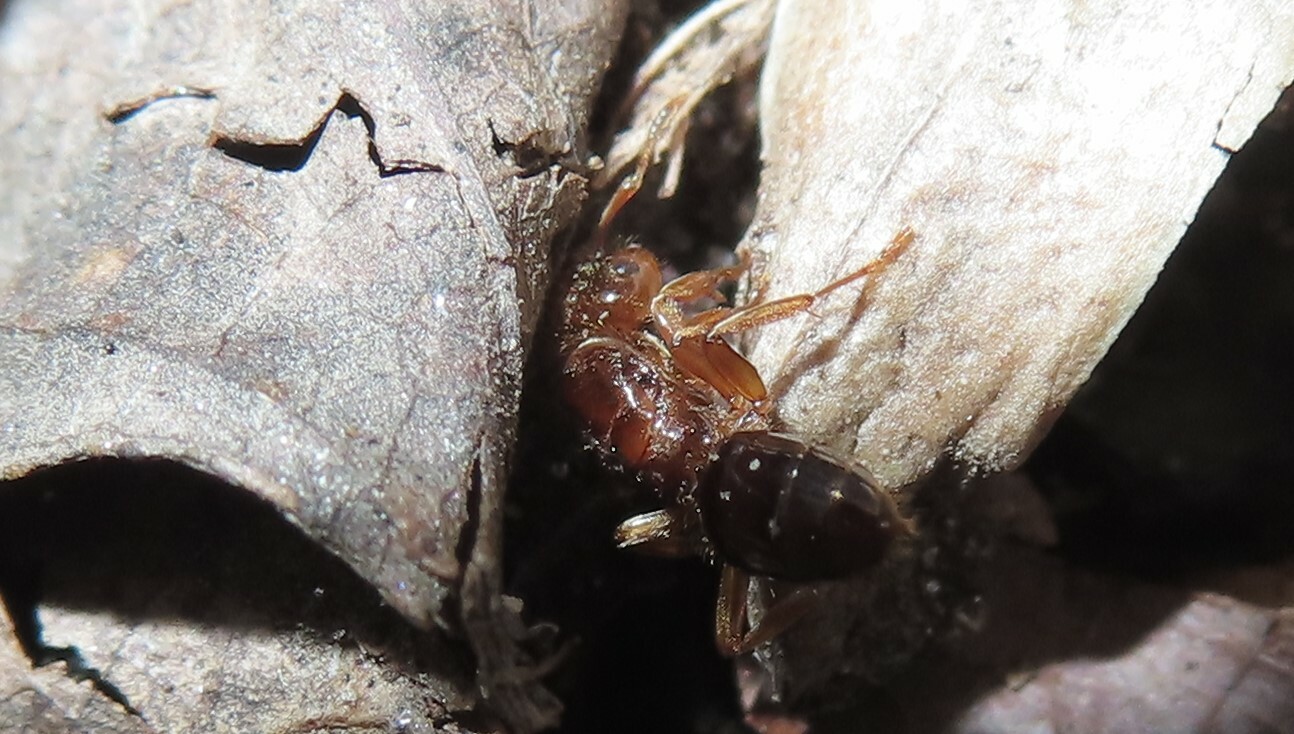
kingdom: Animalia
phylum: Arthropoda
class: Insecta
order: Hymenoptera
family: Formicidae
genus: Lasius
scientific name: Lasius claviger
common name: Common citronella ant
